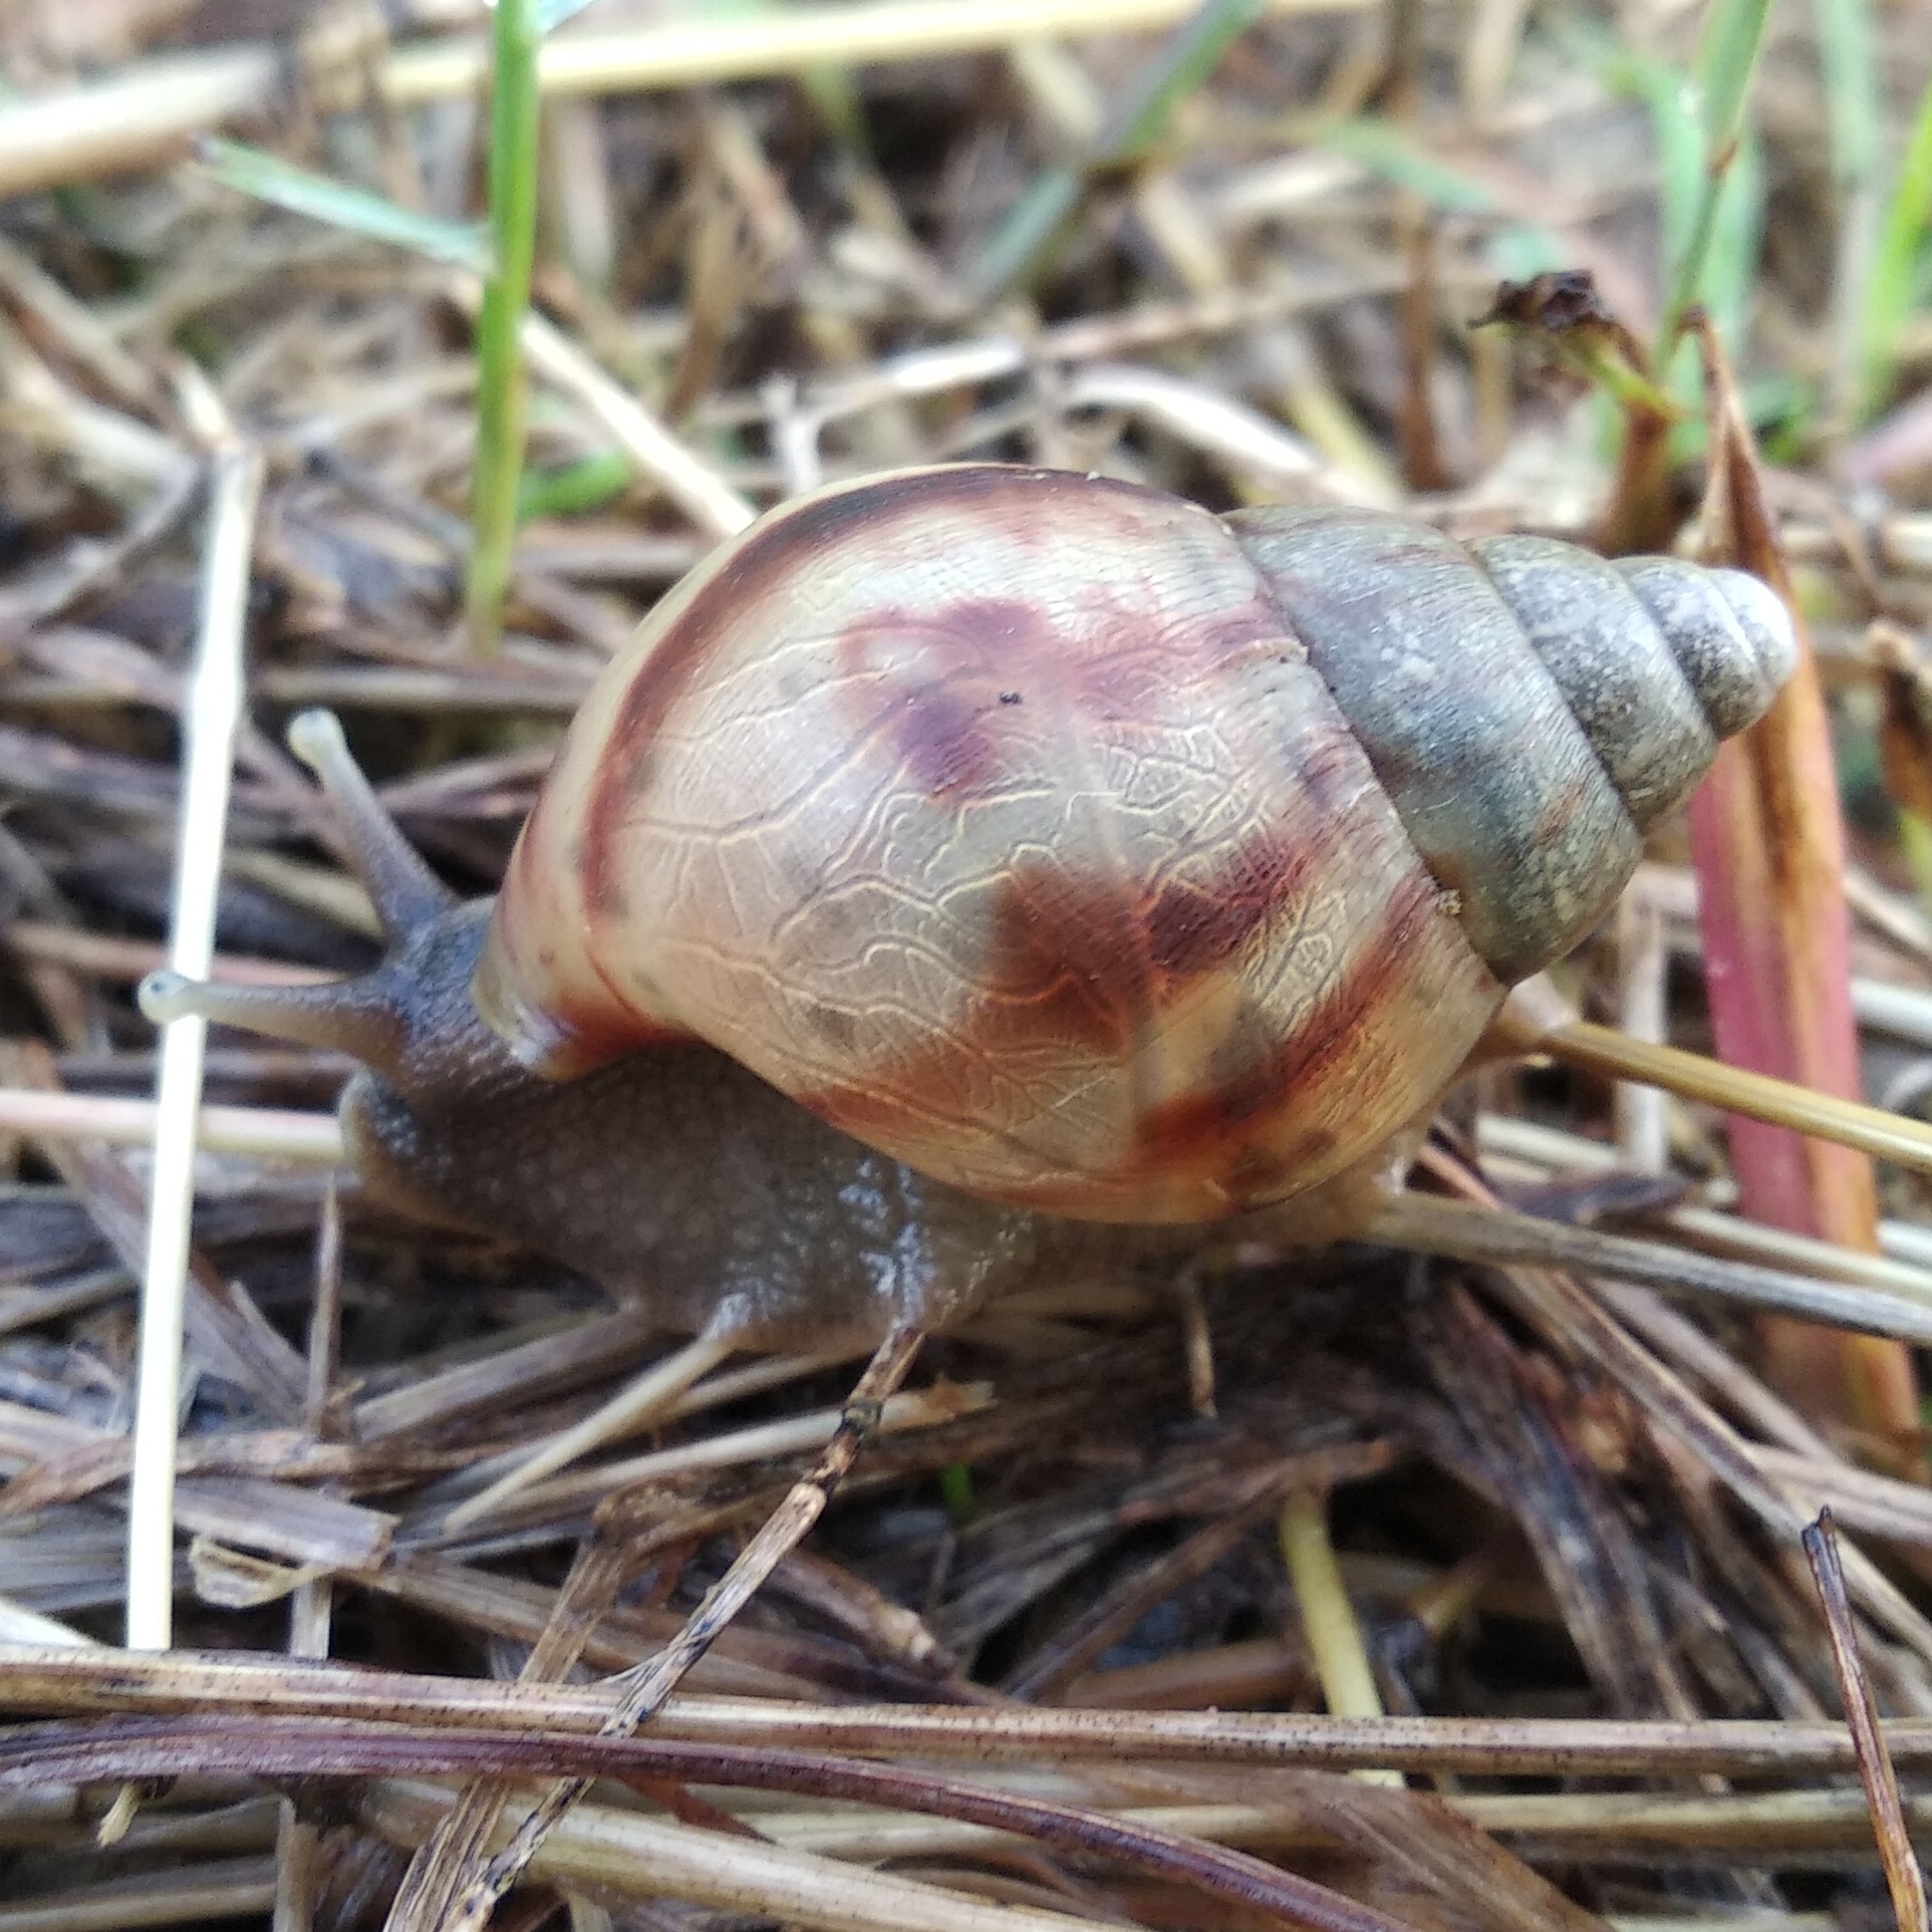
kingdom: Animalia
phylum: Mollusca
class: Gastropoda
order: Stylommatophora
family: Achatinidae
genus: Lissachatina
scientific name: Lissachatina fulica
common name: Giant african snail
